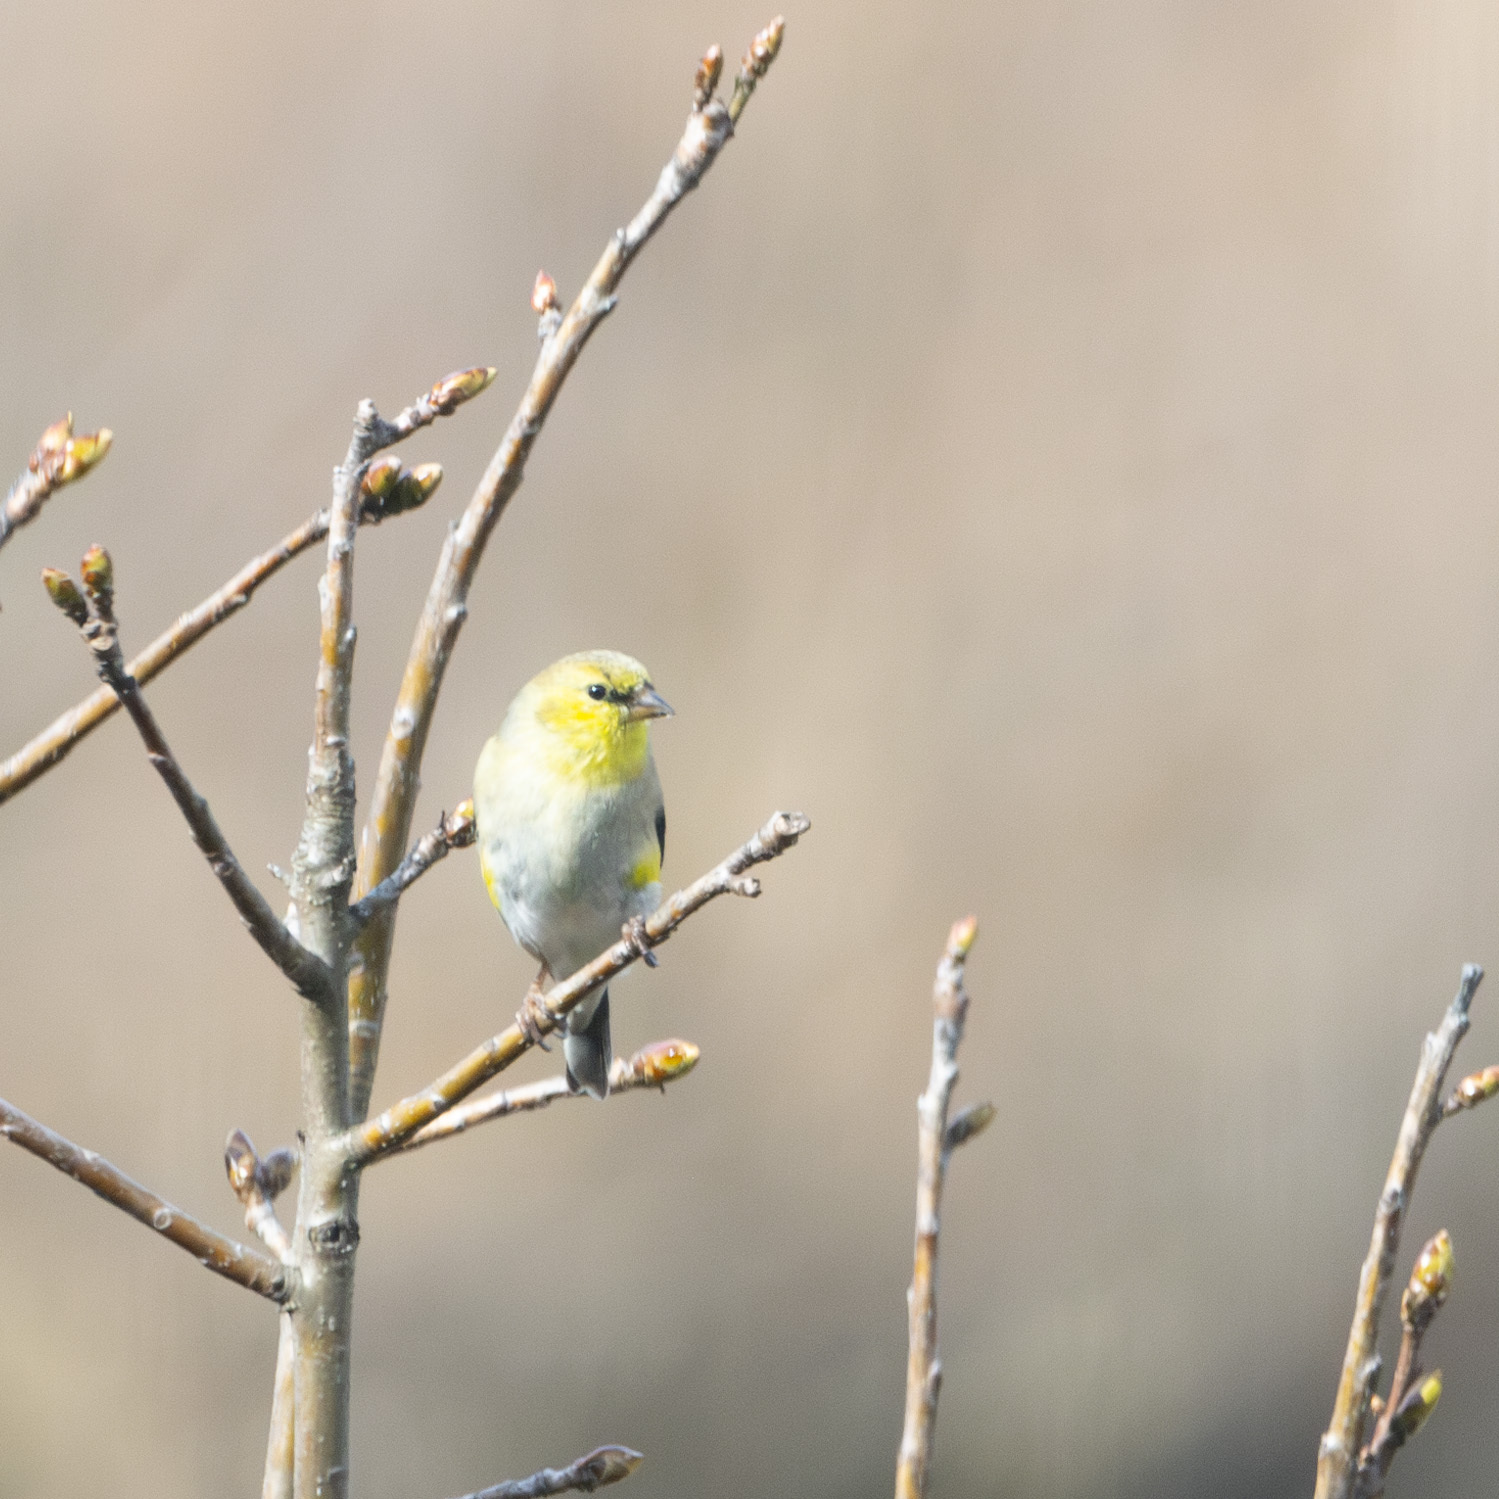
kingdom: Animalia
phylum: Chordata
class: Aves
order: Passeriformes
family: Fringillidae
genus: Spinus
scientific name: Spinus tristis
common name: American goldfinch
